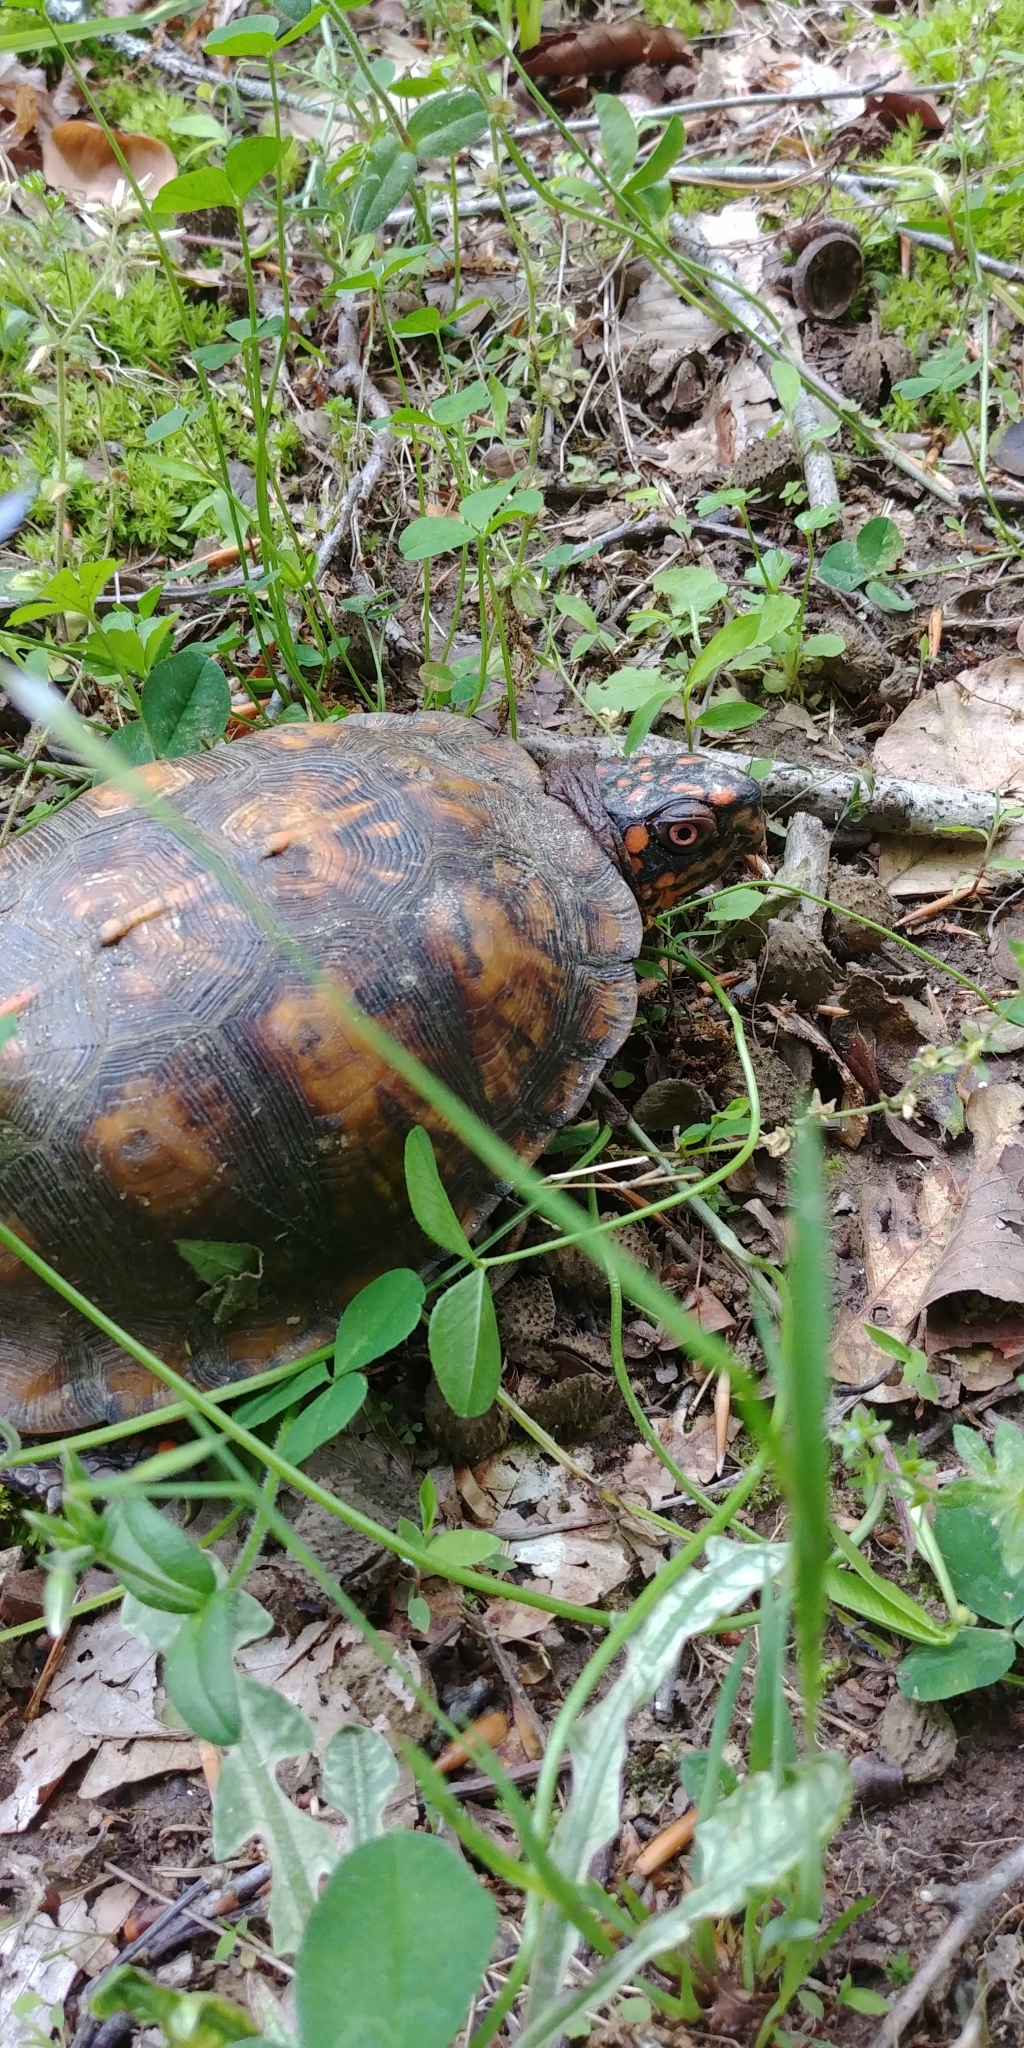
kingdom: Animalia
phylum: Chordata
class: Testudines
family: Emydidae
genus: Terrapene
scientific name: Terrapene carolina
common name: Common box turtle
